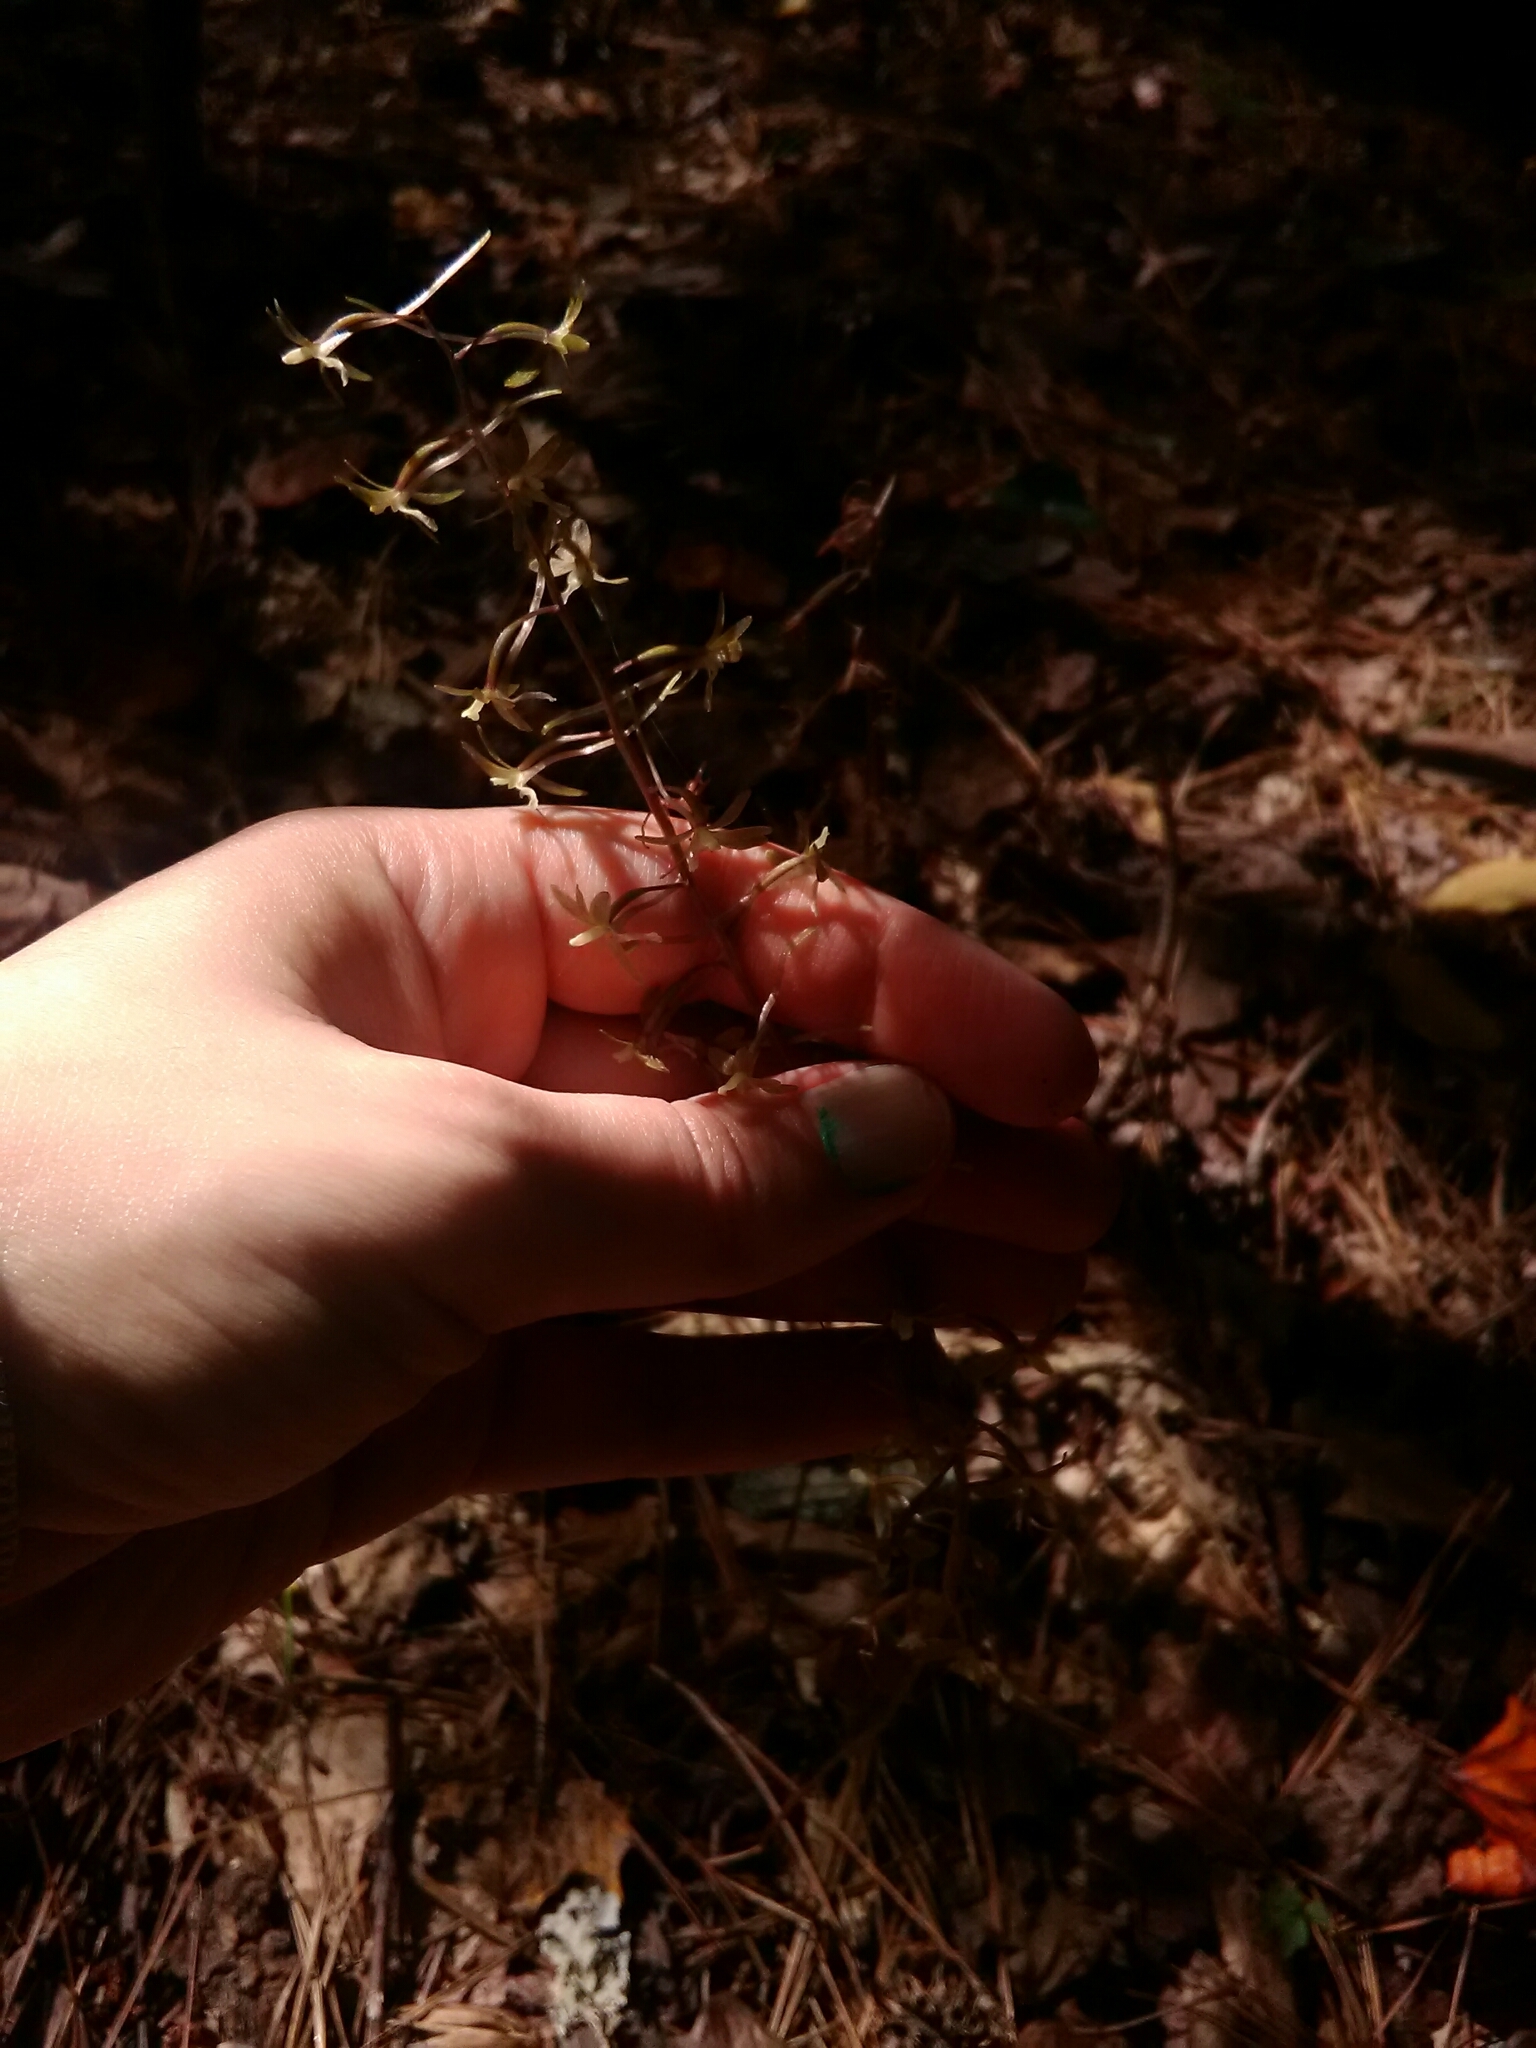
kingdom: Plantae
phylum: Tracheophyta
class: Liliopsida
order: Asparagales
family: Orchidaceae
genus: Tipularia
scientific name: Tipularia discolor
